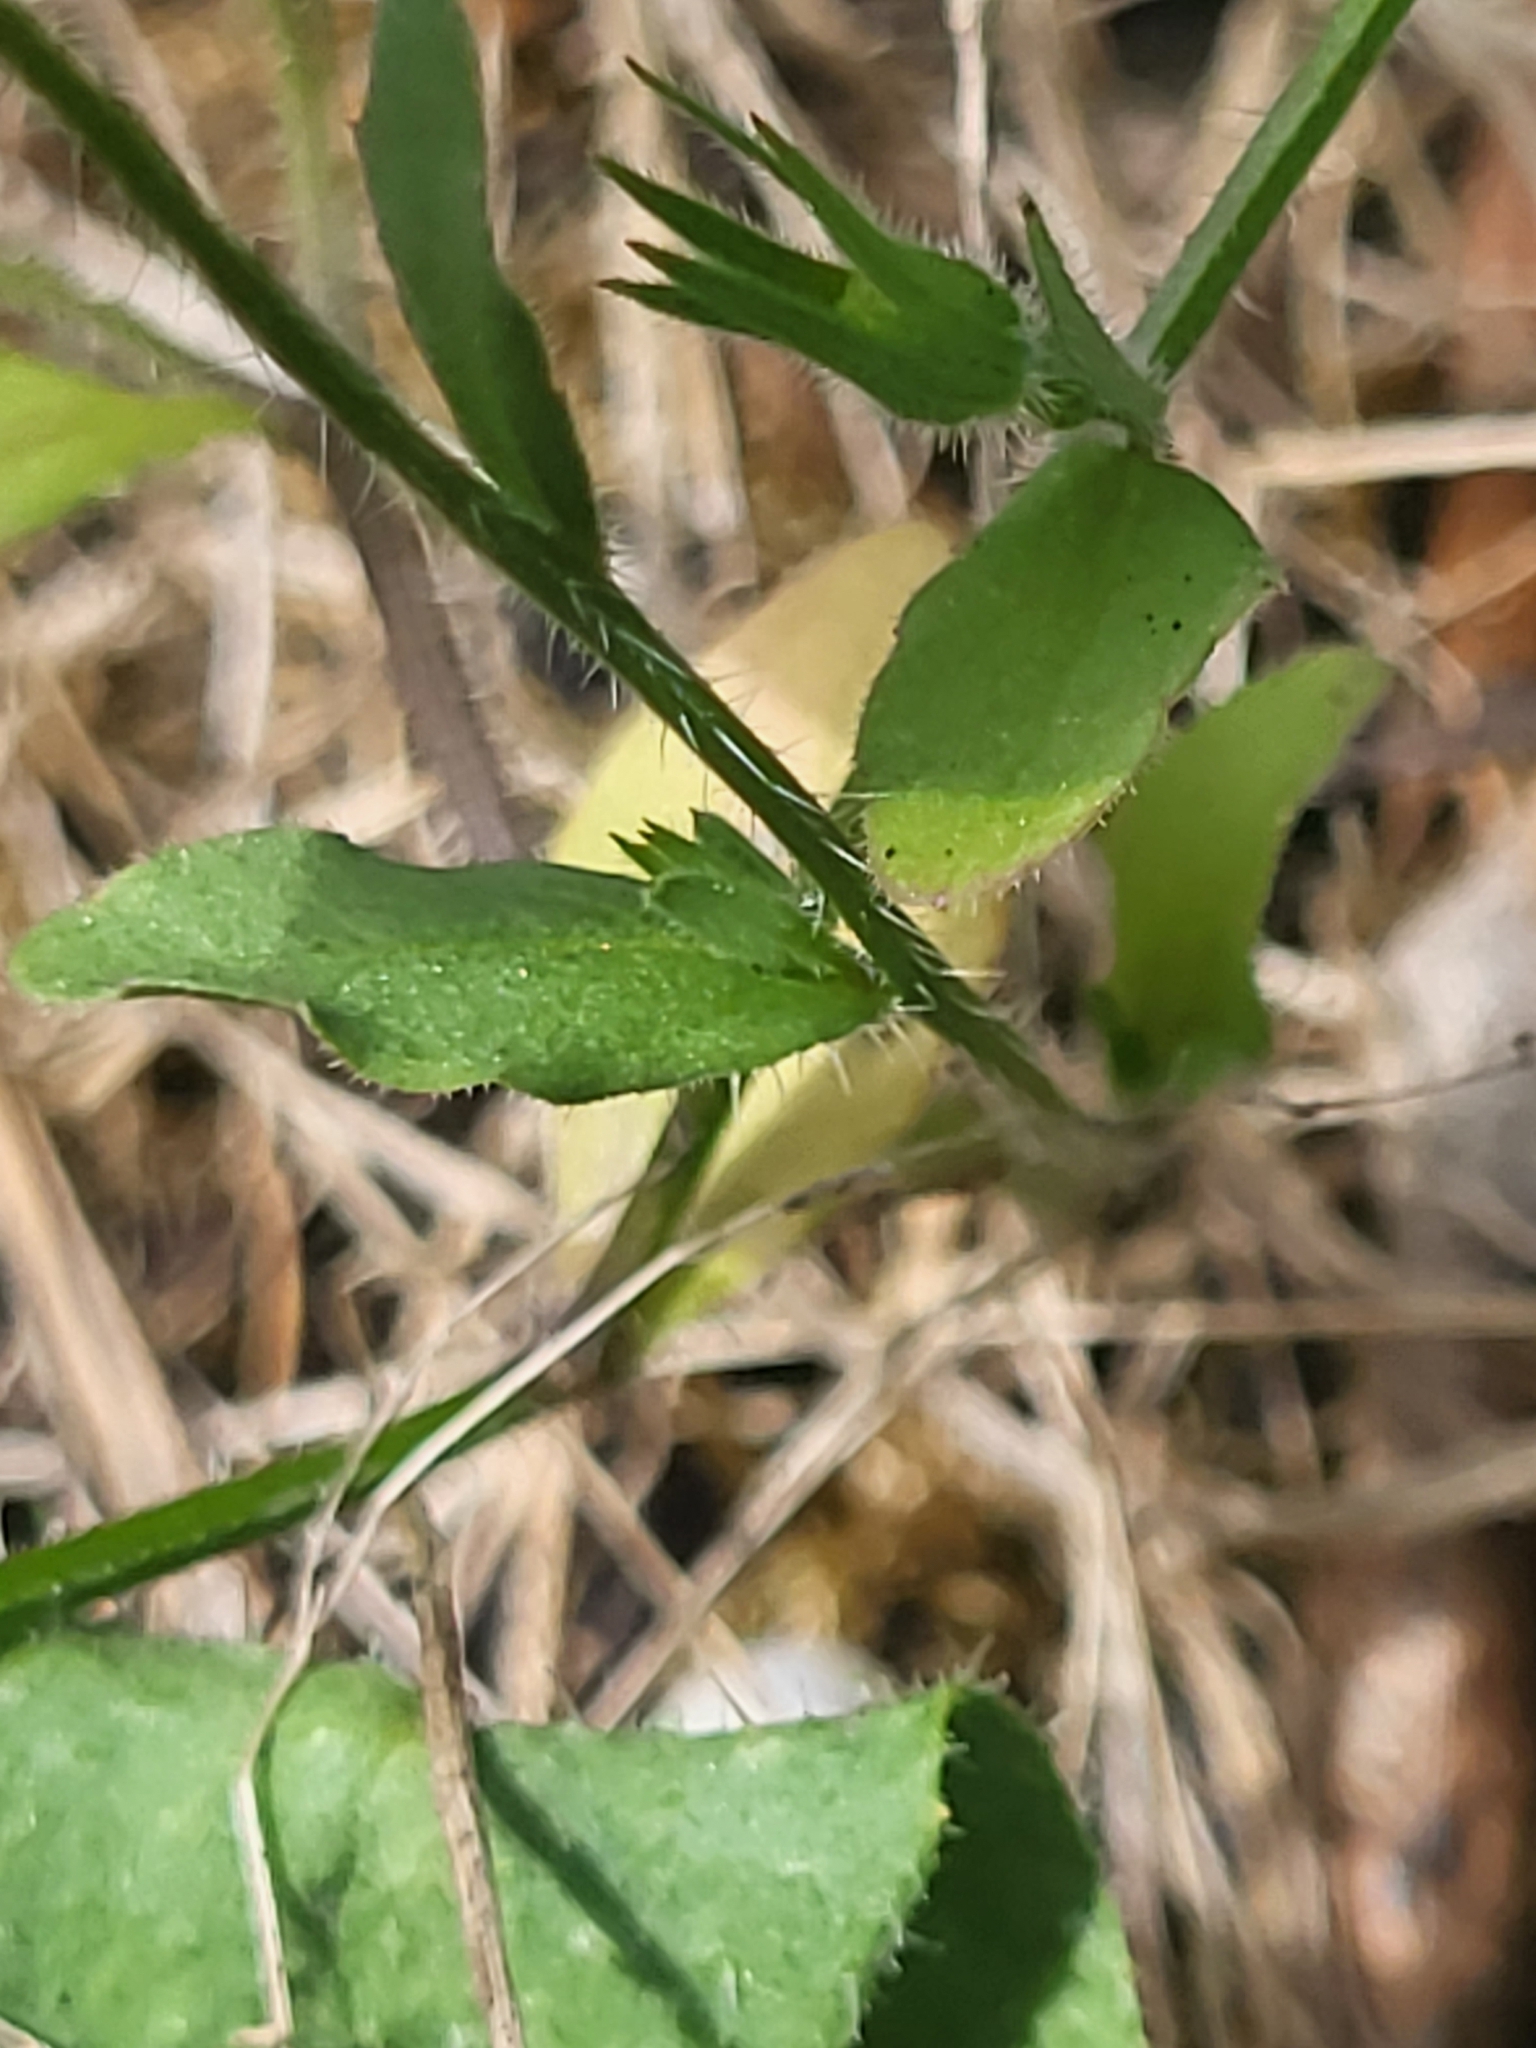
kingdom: Plantae
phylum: Tracheophyta
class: Magnoliopsida
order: Asterales
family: Campanulaceae
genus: Campanula
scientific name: Campanula ramosissima
